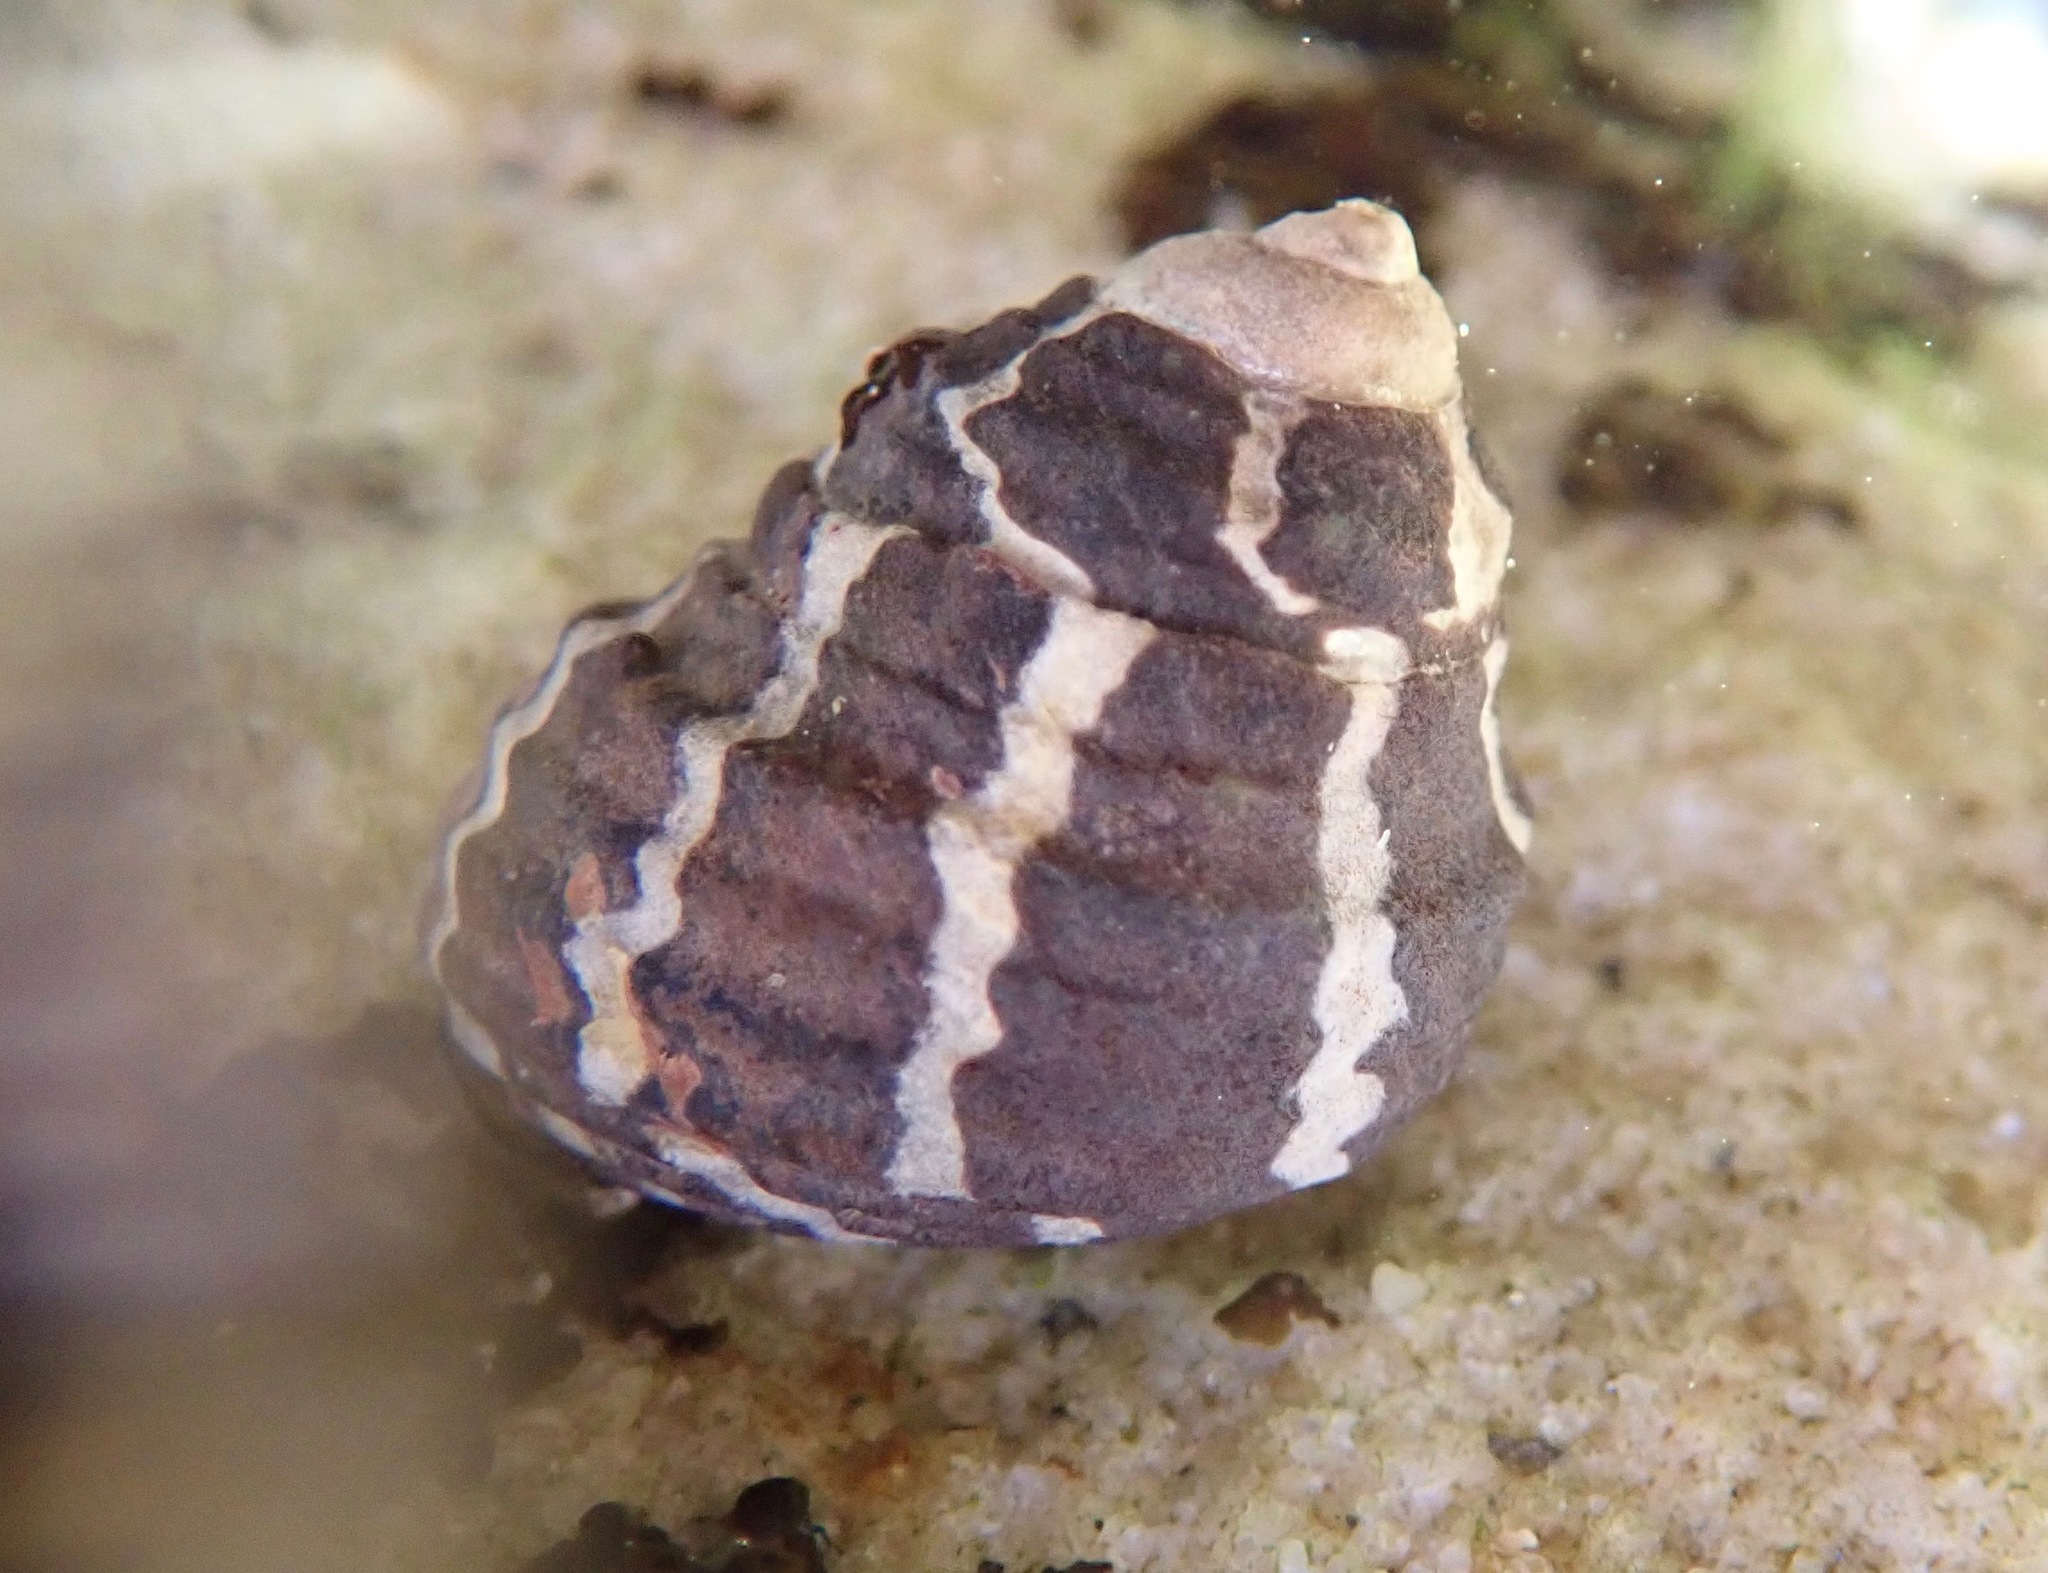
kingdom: Animalia
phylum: Mollusca
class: Gastropoda
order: Trochida
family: Trochidae
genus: Austrocochlea
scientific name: Austrocochlea porcata
